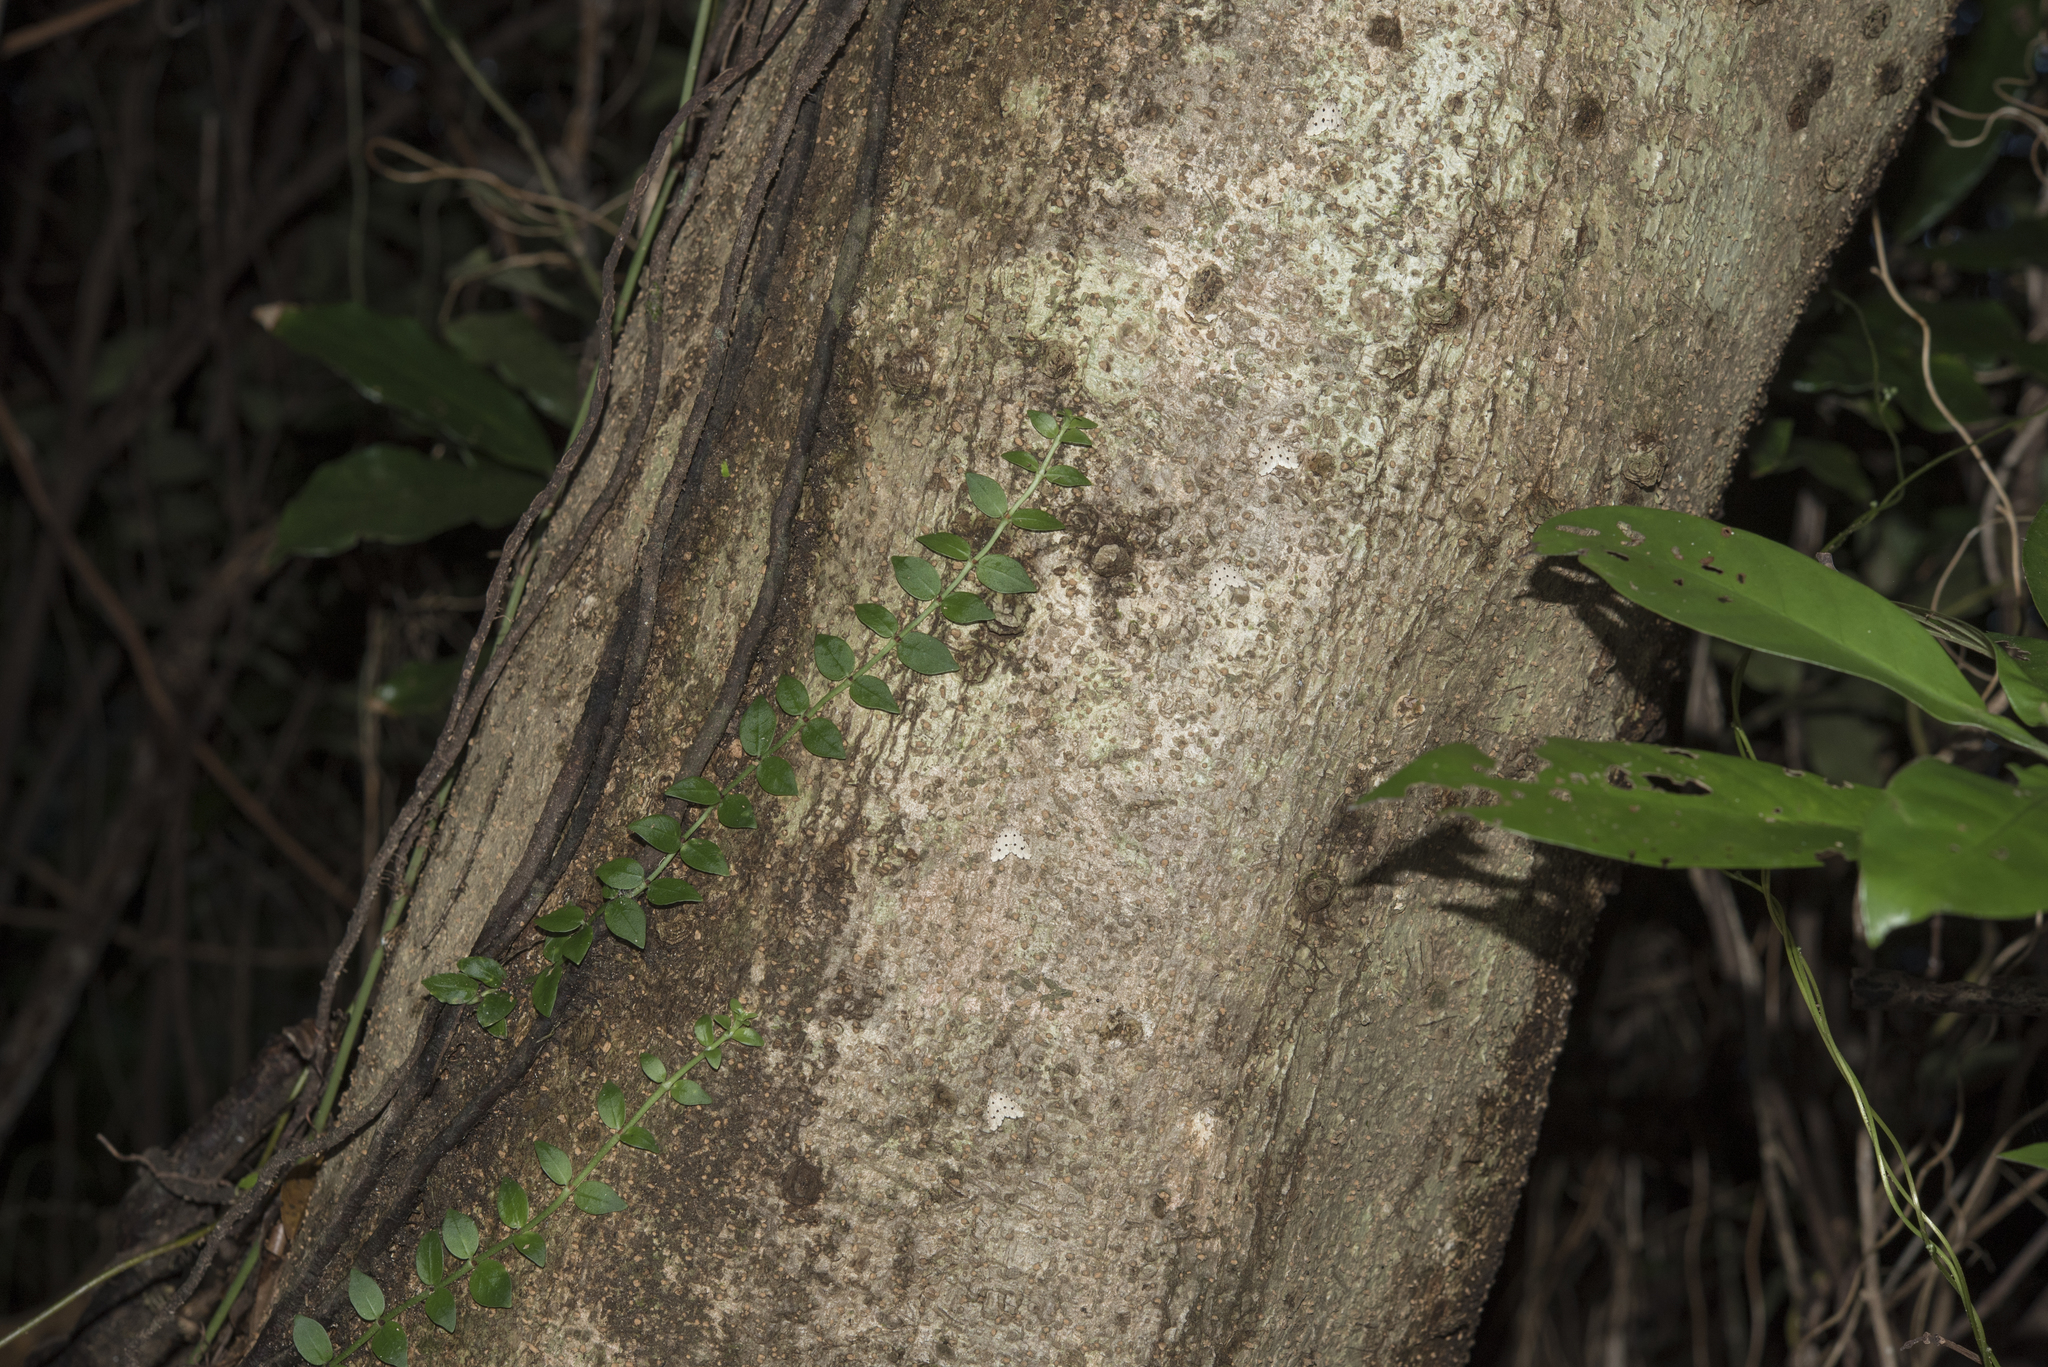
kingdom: Animalia
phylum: Arthropoda
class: Insecta
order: Lepidoptera
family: Noctuidae
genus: Metaemene
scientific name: Metaemene atrigutta
